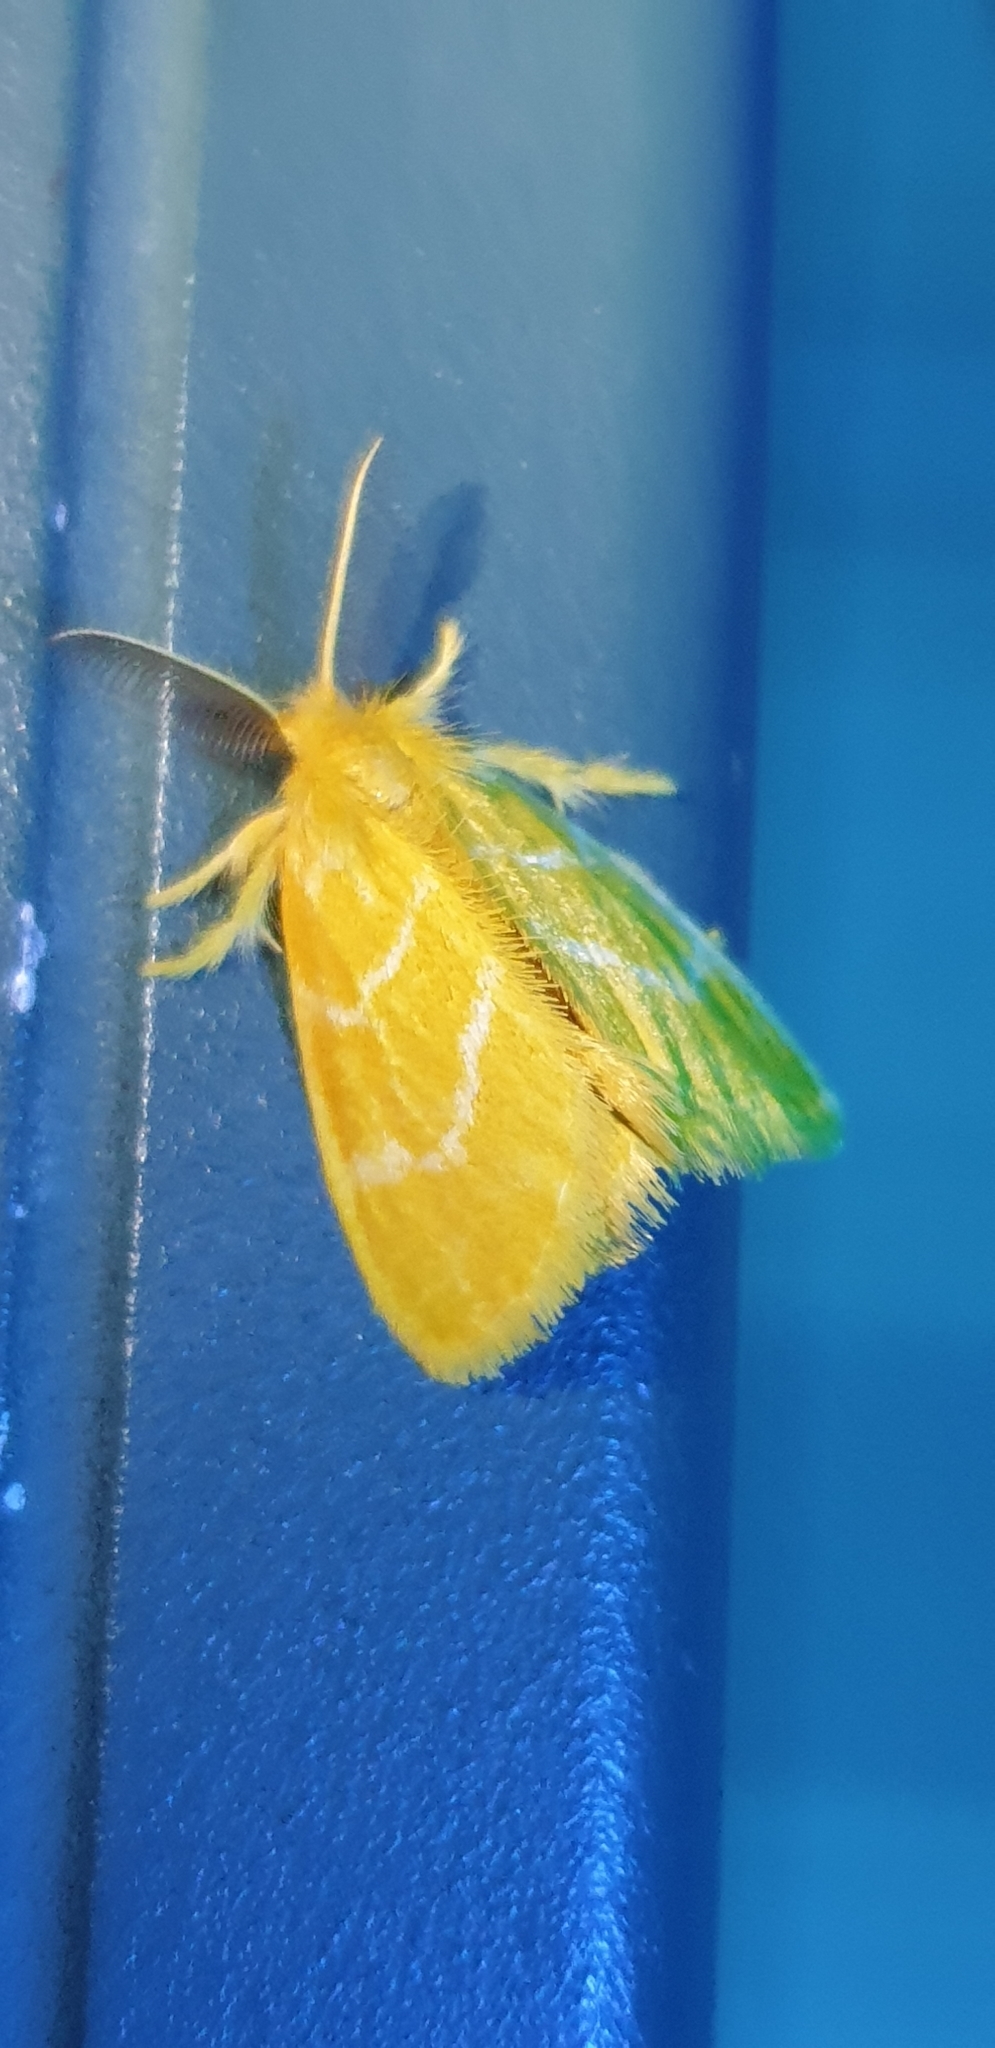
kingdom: Animalia
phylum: Arthropoda
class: Insecta
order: Lepidoptera
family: Erebidae
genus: Euproctis
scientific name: Euproctis lutea
